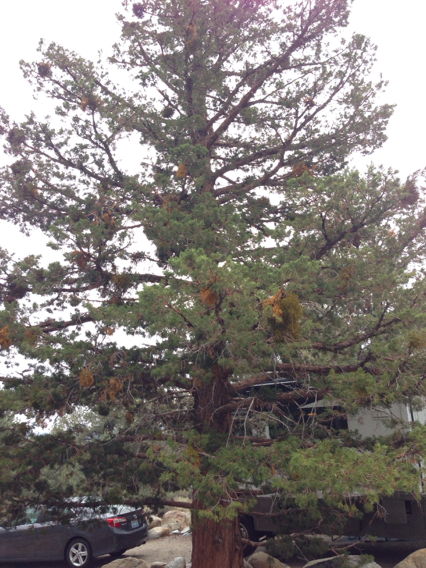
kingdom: Plantae
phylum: Tracheophyta
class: Pinopsida
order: Pinales
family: Cupressaceae
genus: Juniperus
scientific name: Juniperus occidentalis
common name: Western juniper
